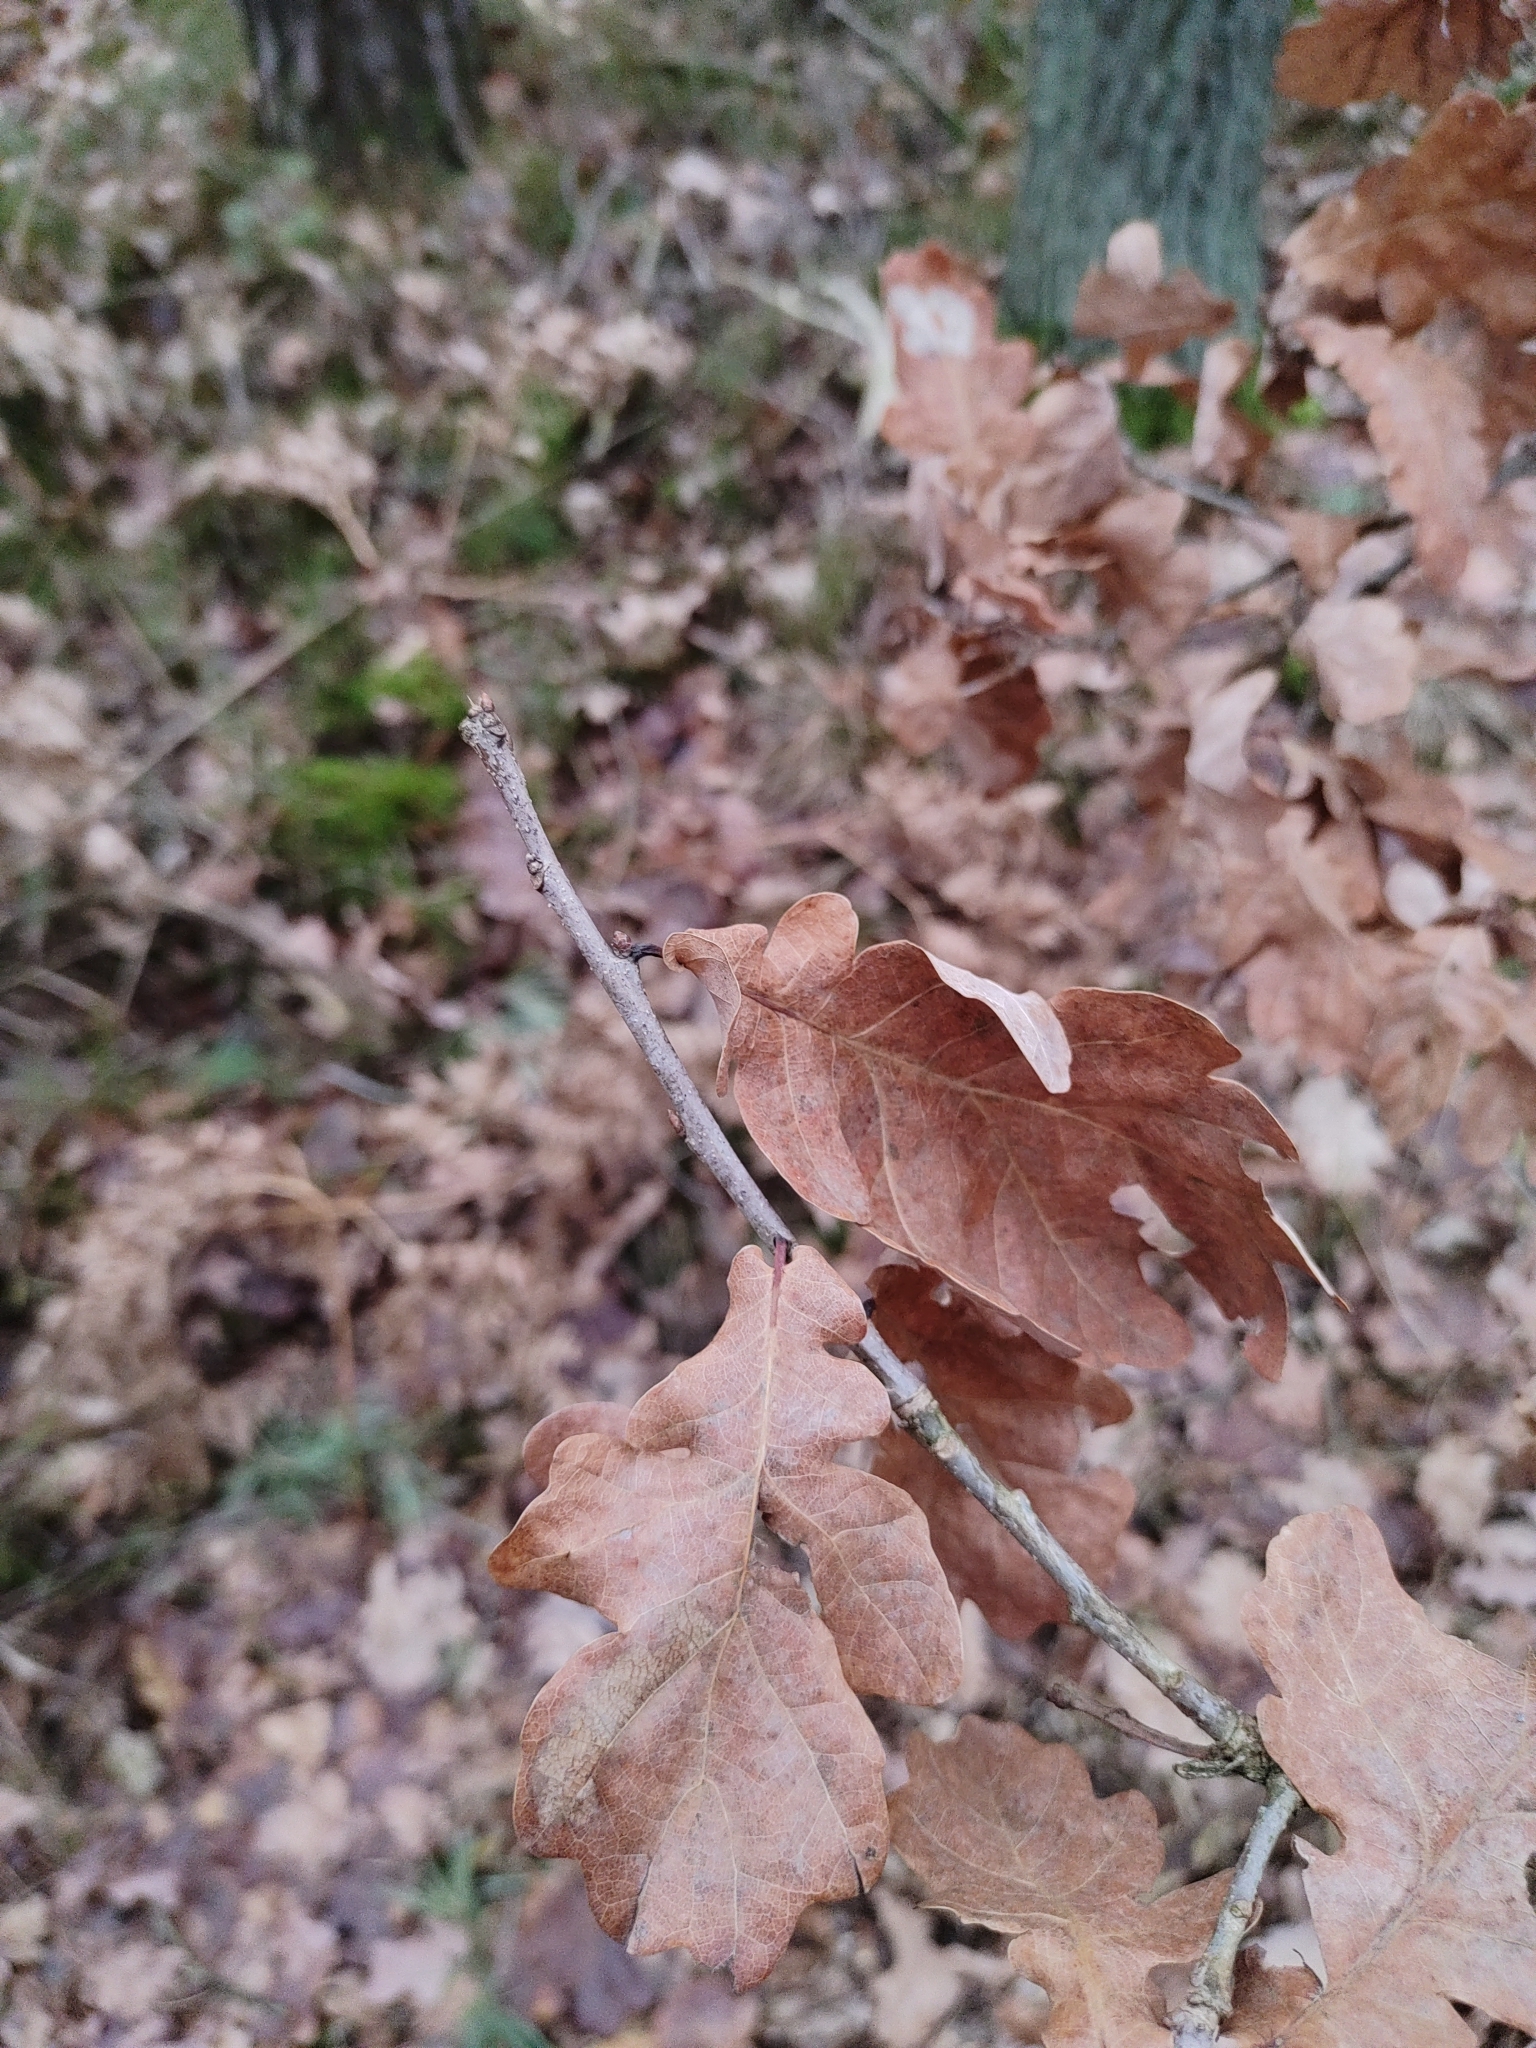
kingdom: Plantae
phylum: Tracheophyta
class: Magnoliopsida
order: Fagales
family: Fagaceae
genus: Quercus
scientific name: Quercus robur
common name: Pedunculate oak
